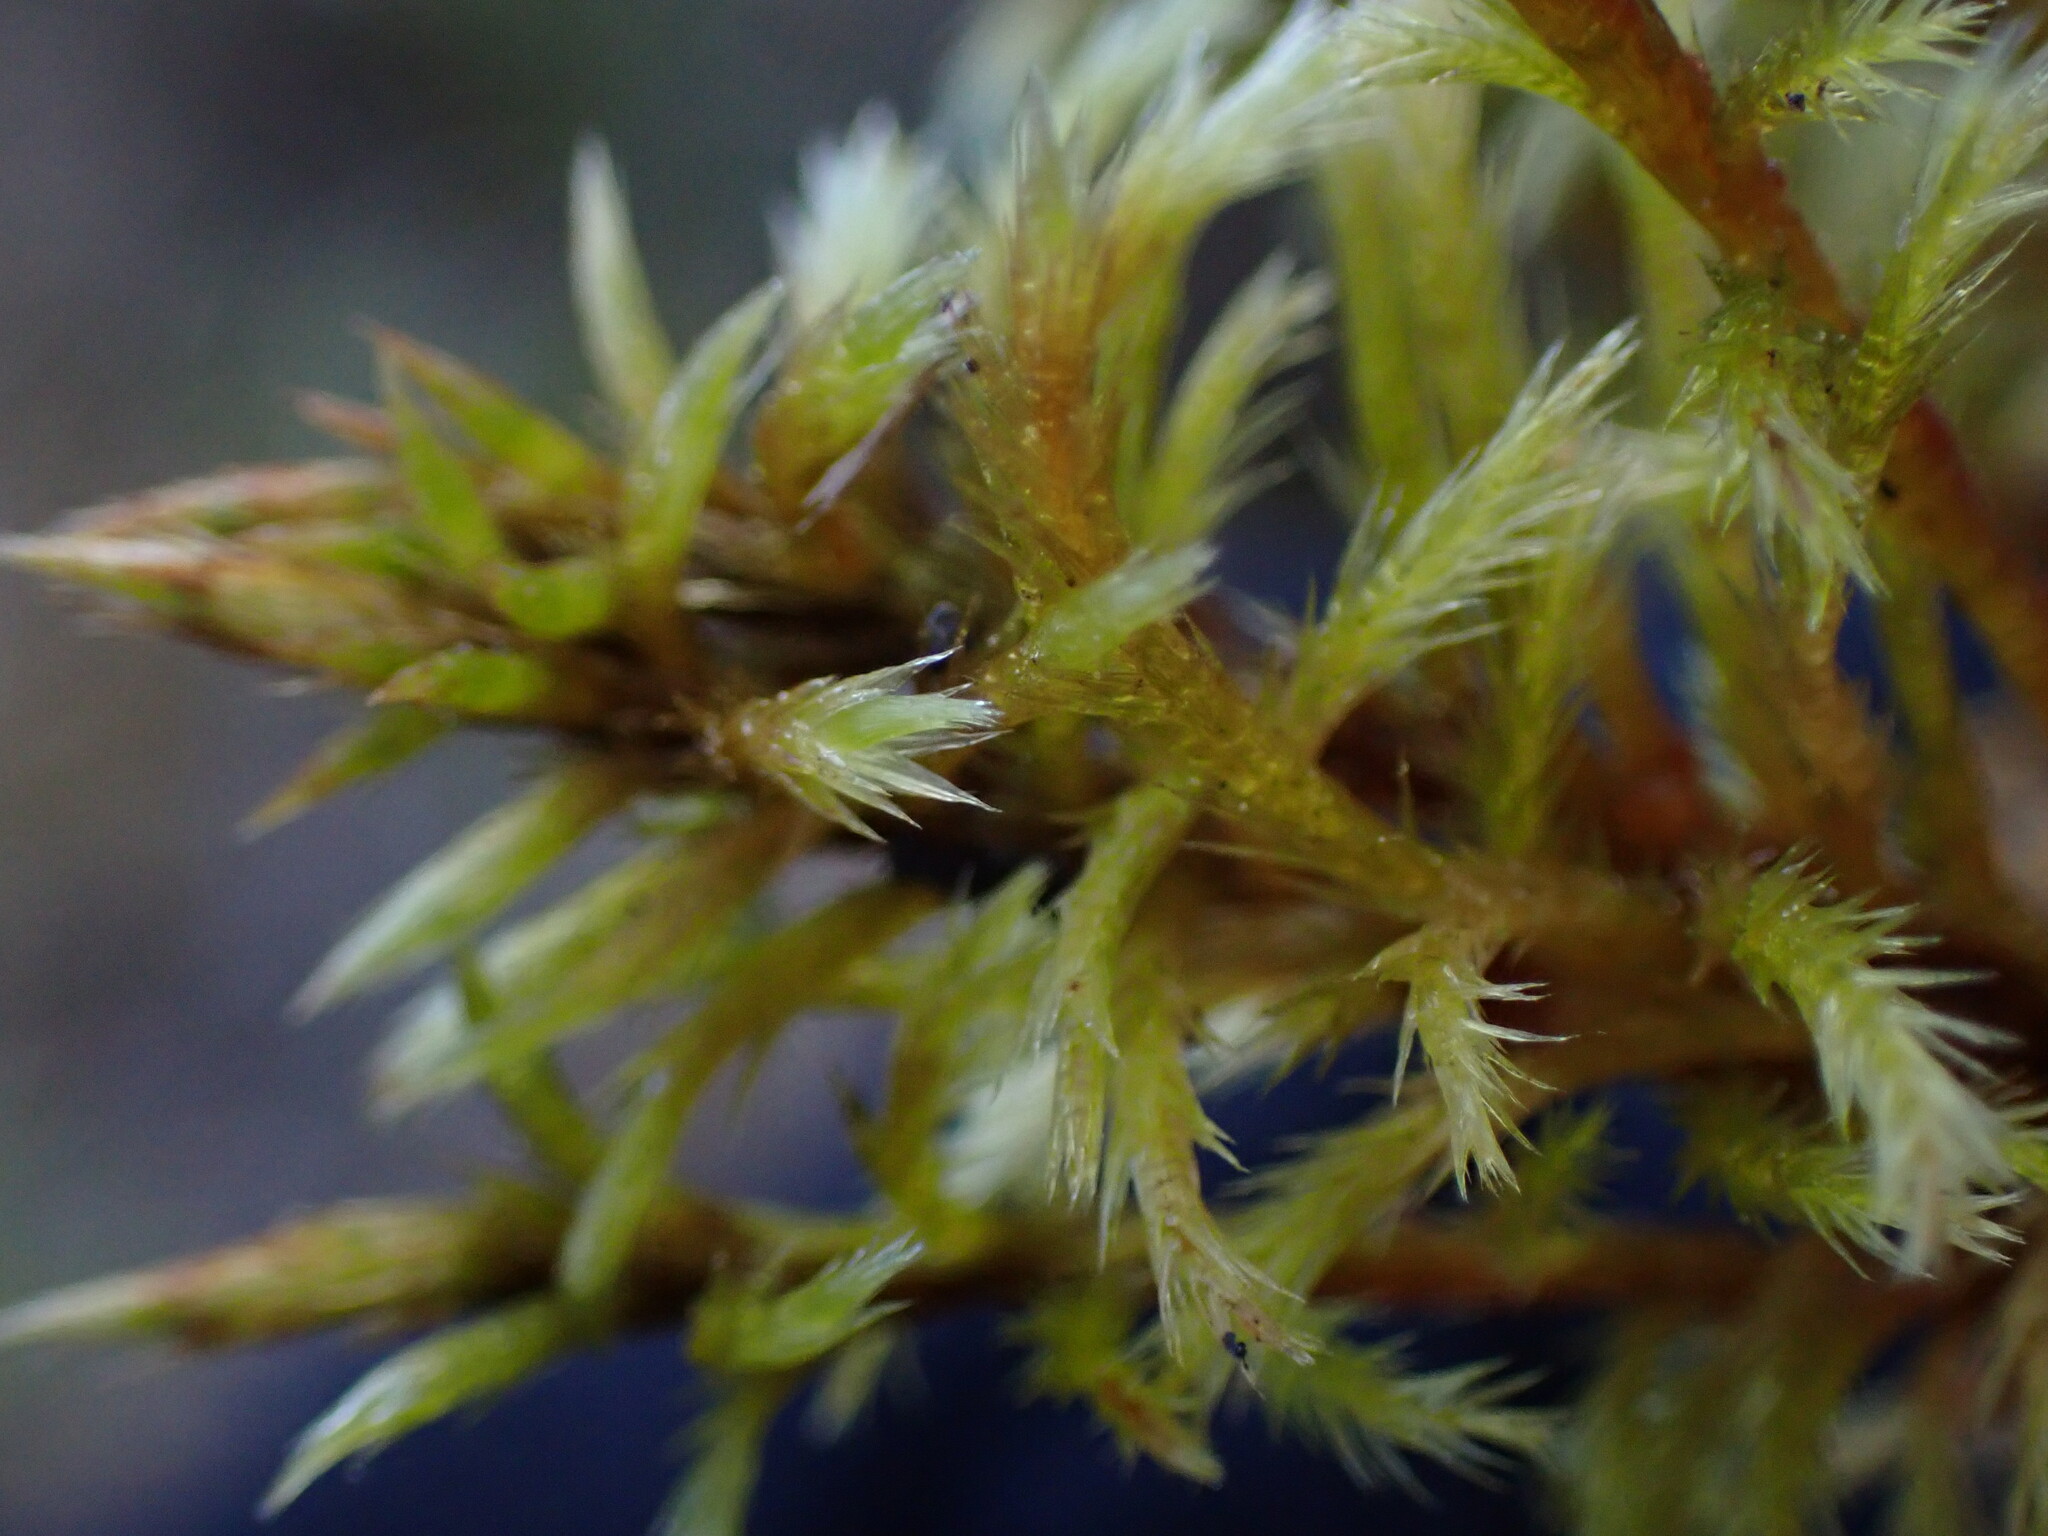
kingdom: Plantae
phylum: Bryophyta
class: Bryopsida
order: Hypnales
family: Amblystegiaceae
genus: Tomentypnum
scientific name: Tomentypnum nitens
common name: Golden fuzzy fen moss
